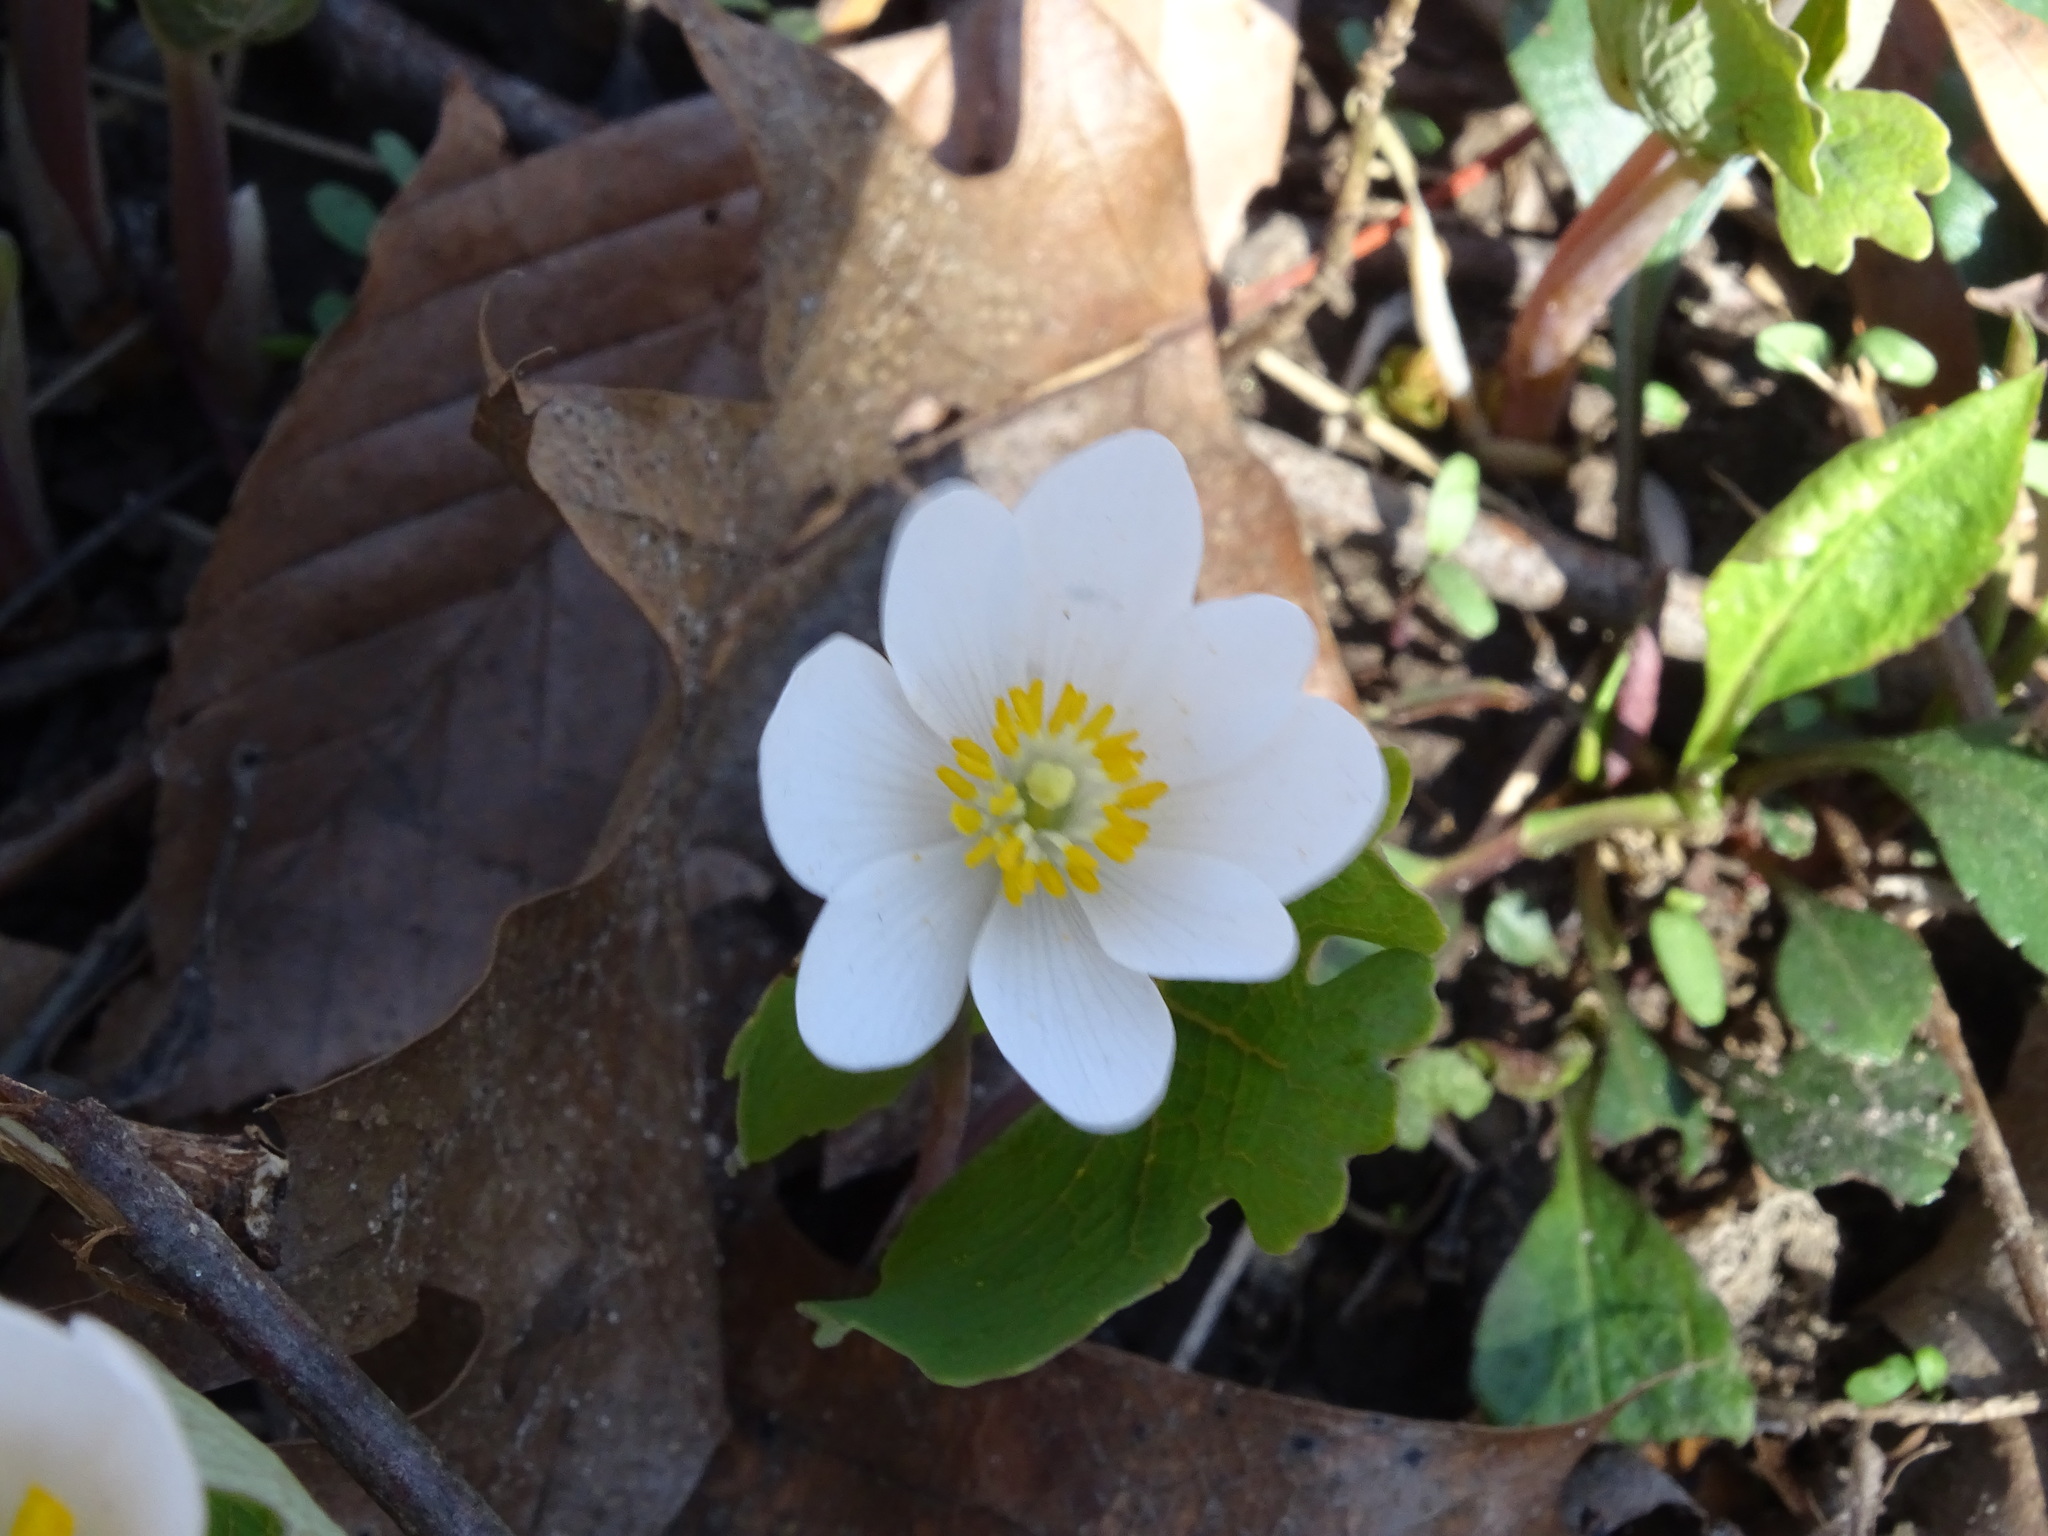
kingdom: Plantae
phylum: Tracheophyta
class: Magnoliopsida
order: Ranunculales
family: Papaveraceae
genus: Sanguinaria
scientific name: Sanguinaria canadensis
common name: Bloodroot
